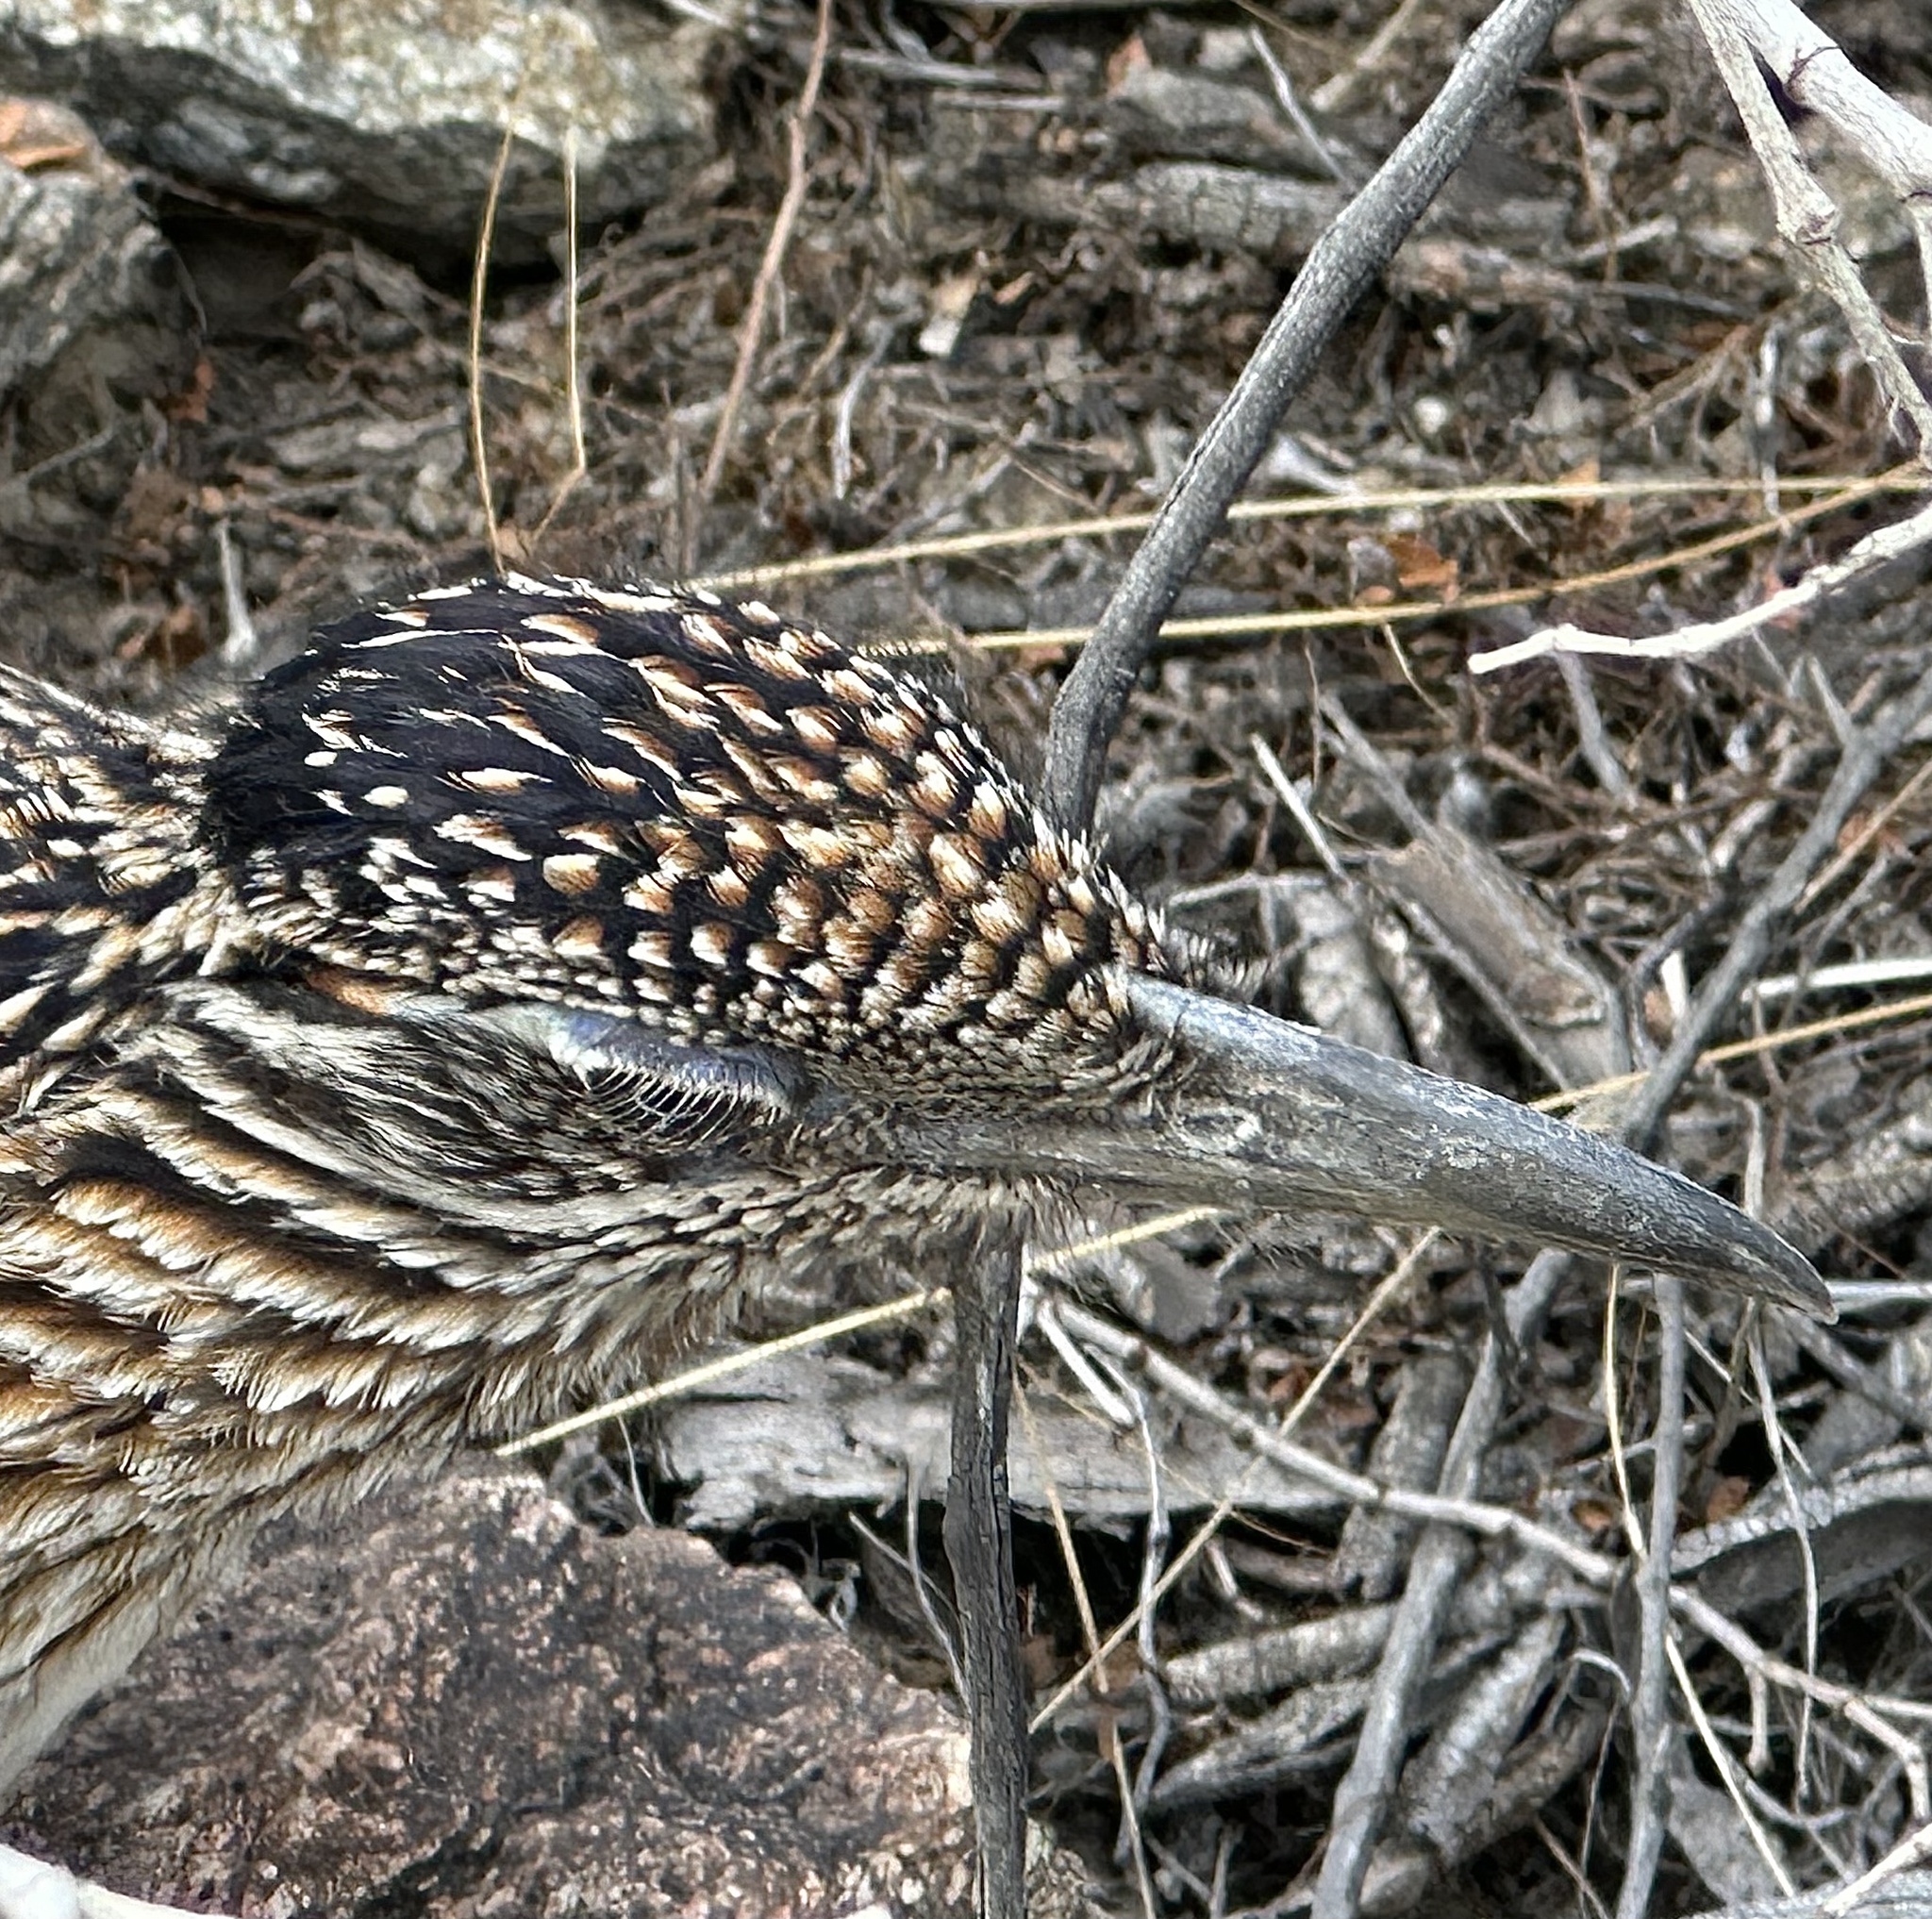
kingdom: Animalia
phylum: Chordata
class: Aves
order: Cuculiformes
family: Cuculidae
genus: Geococcyx
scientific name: Geococcyx californianus
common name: Greater roadrunner
